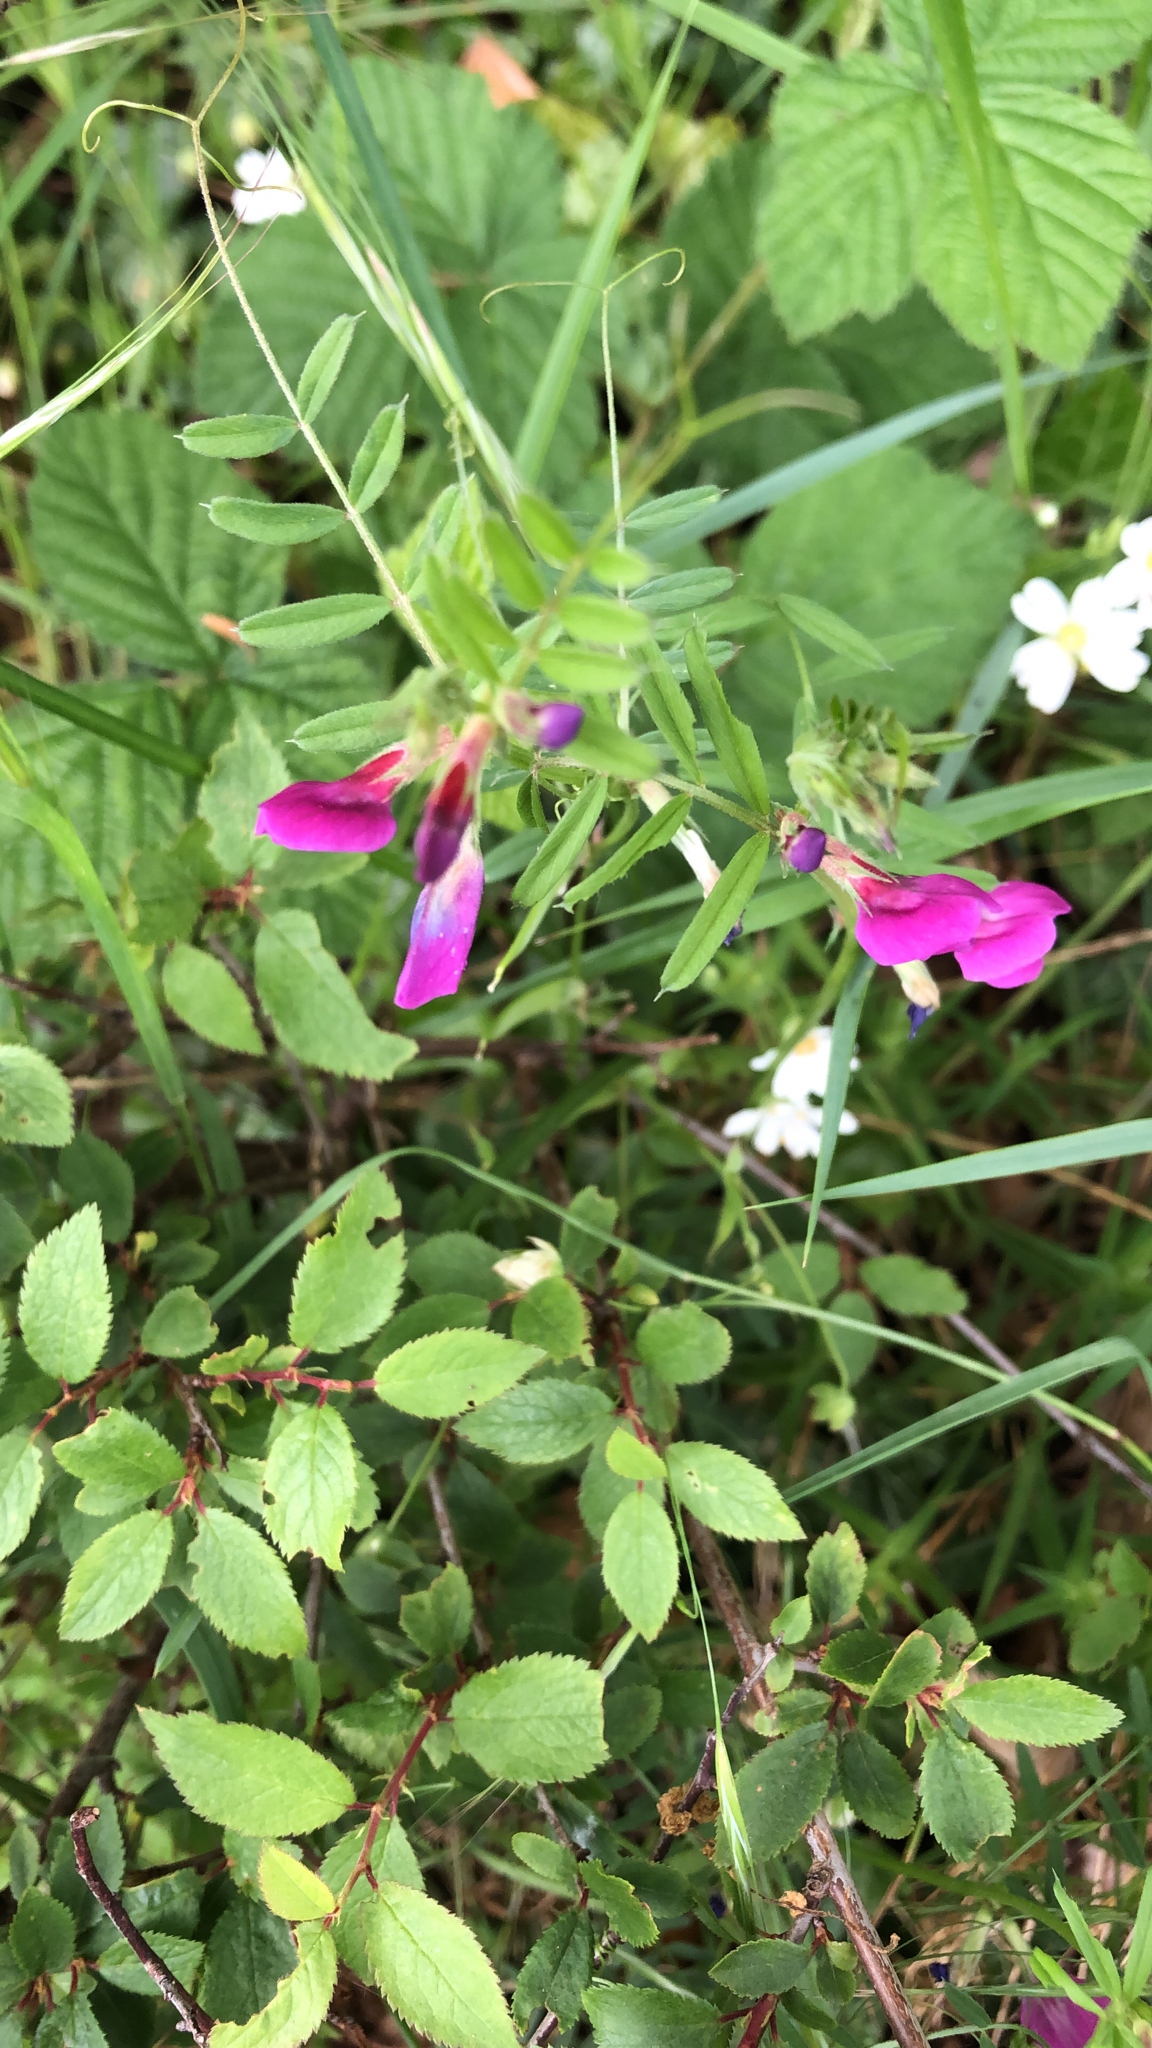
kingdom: Plantae
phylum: Tracheophyta
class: Magnoliopsida
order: Fabales
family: Fabaceae
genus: Vicia
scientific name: Vicia sativa
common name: Garden vetch
